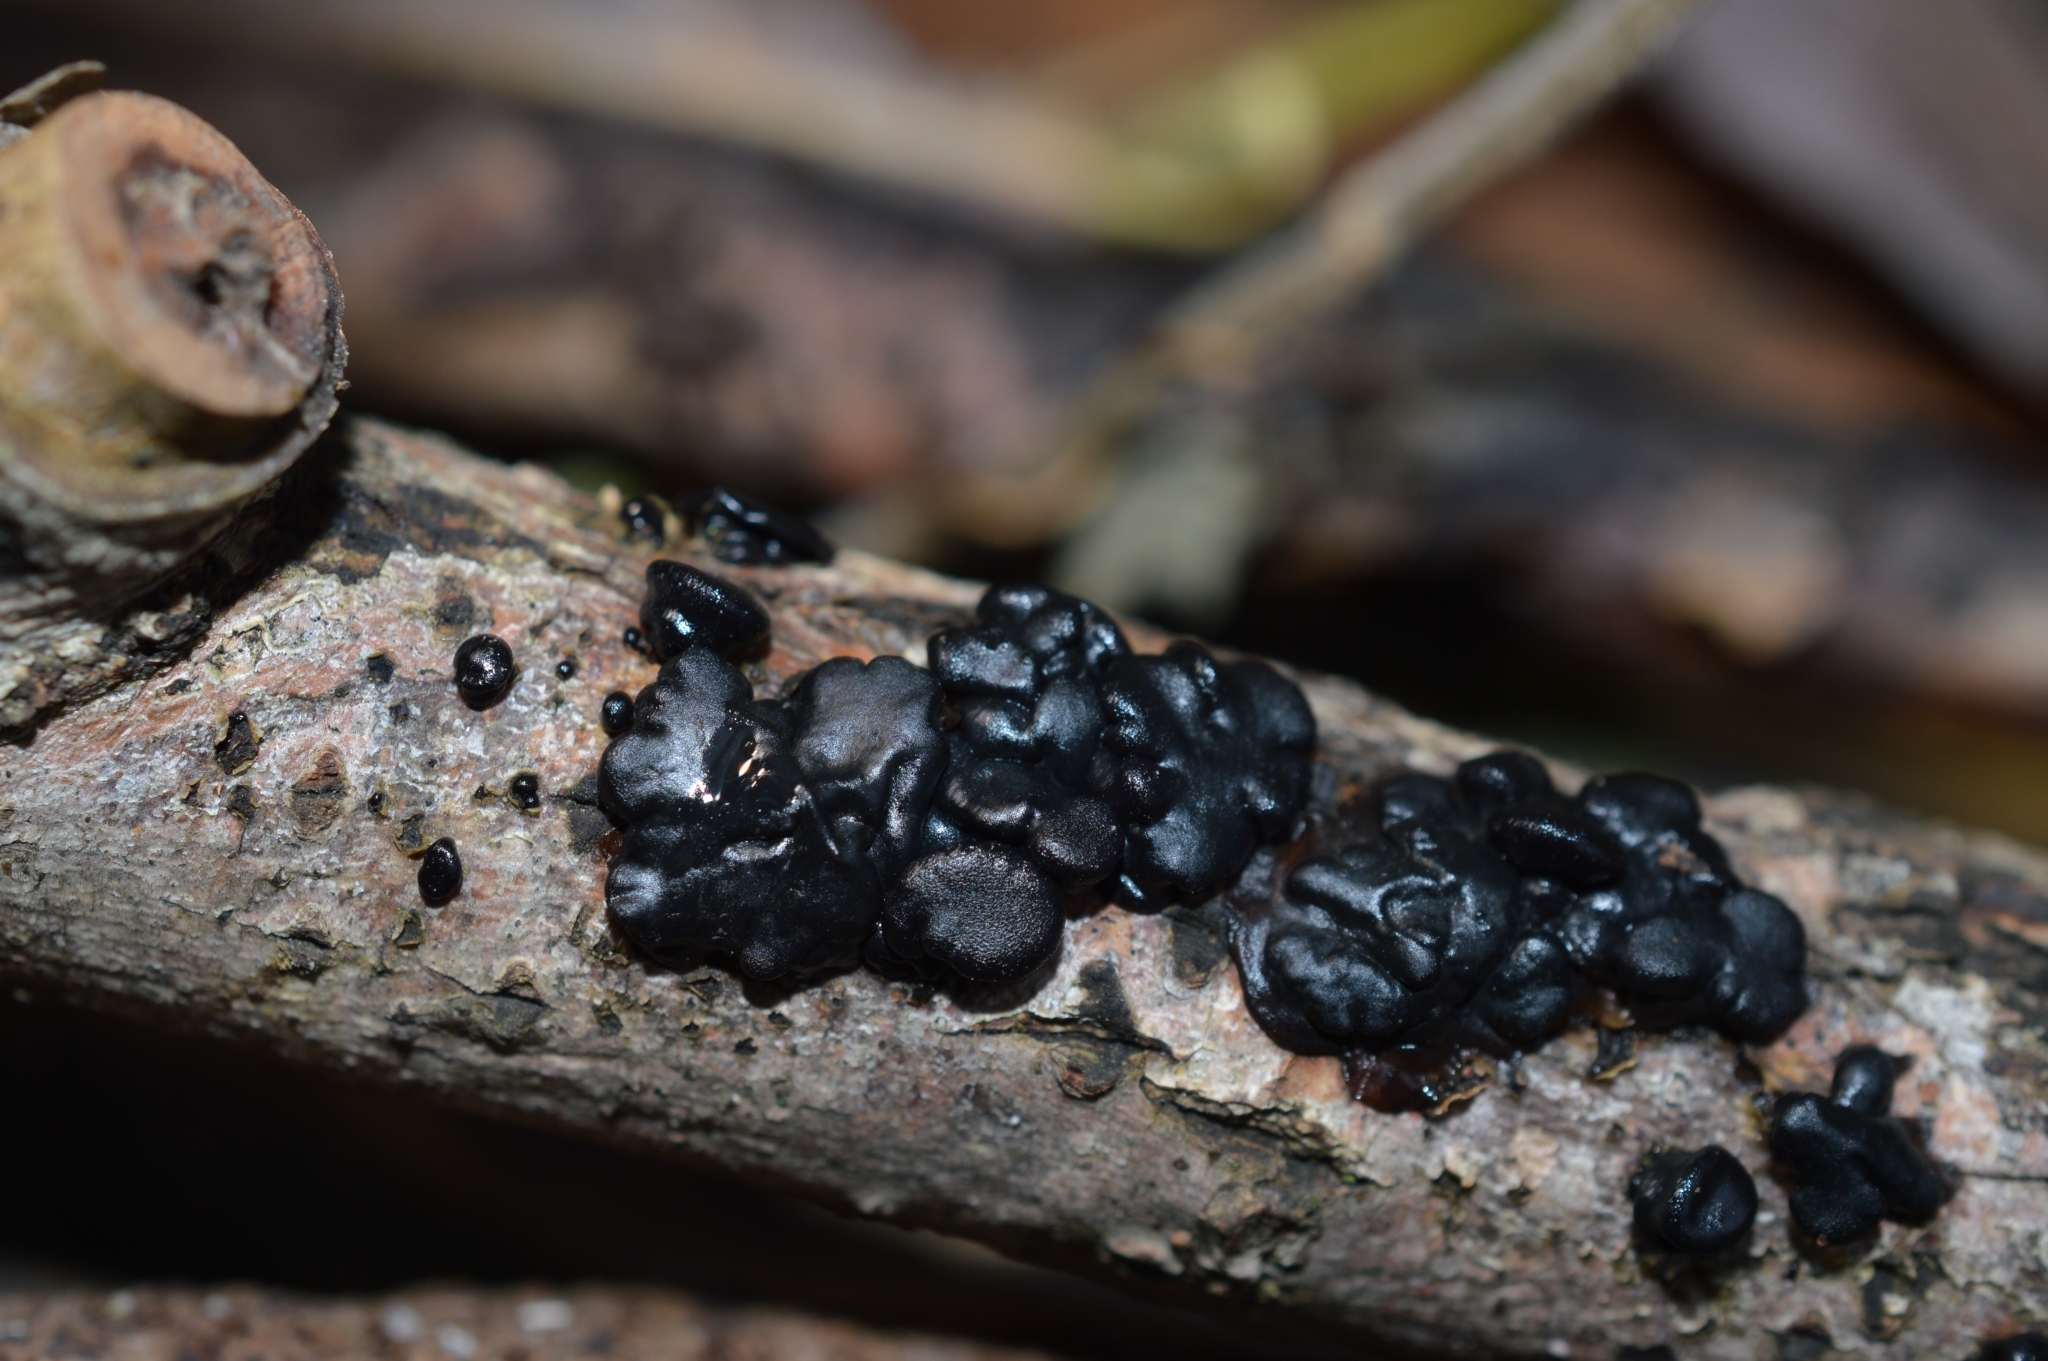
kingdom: Fungi
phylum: Basidiomycota
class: Agaricomycetes
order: Auriculariales
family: Auriculariaceae
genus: Exidia
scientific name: Exidia glandulosa
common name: Witches' butter
